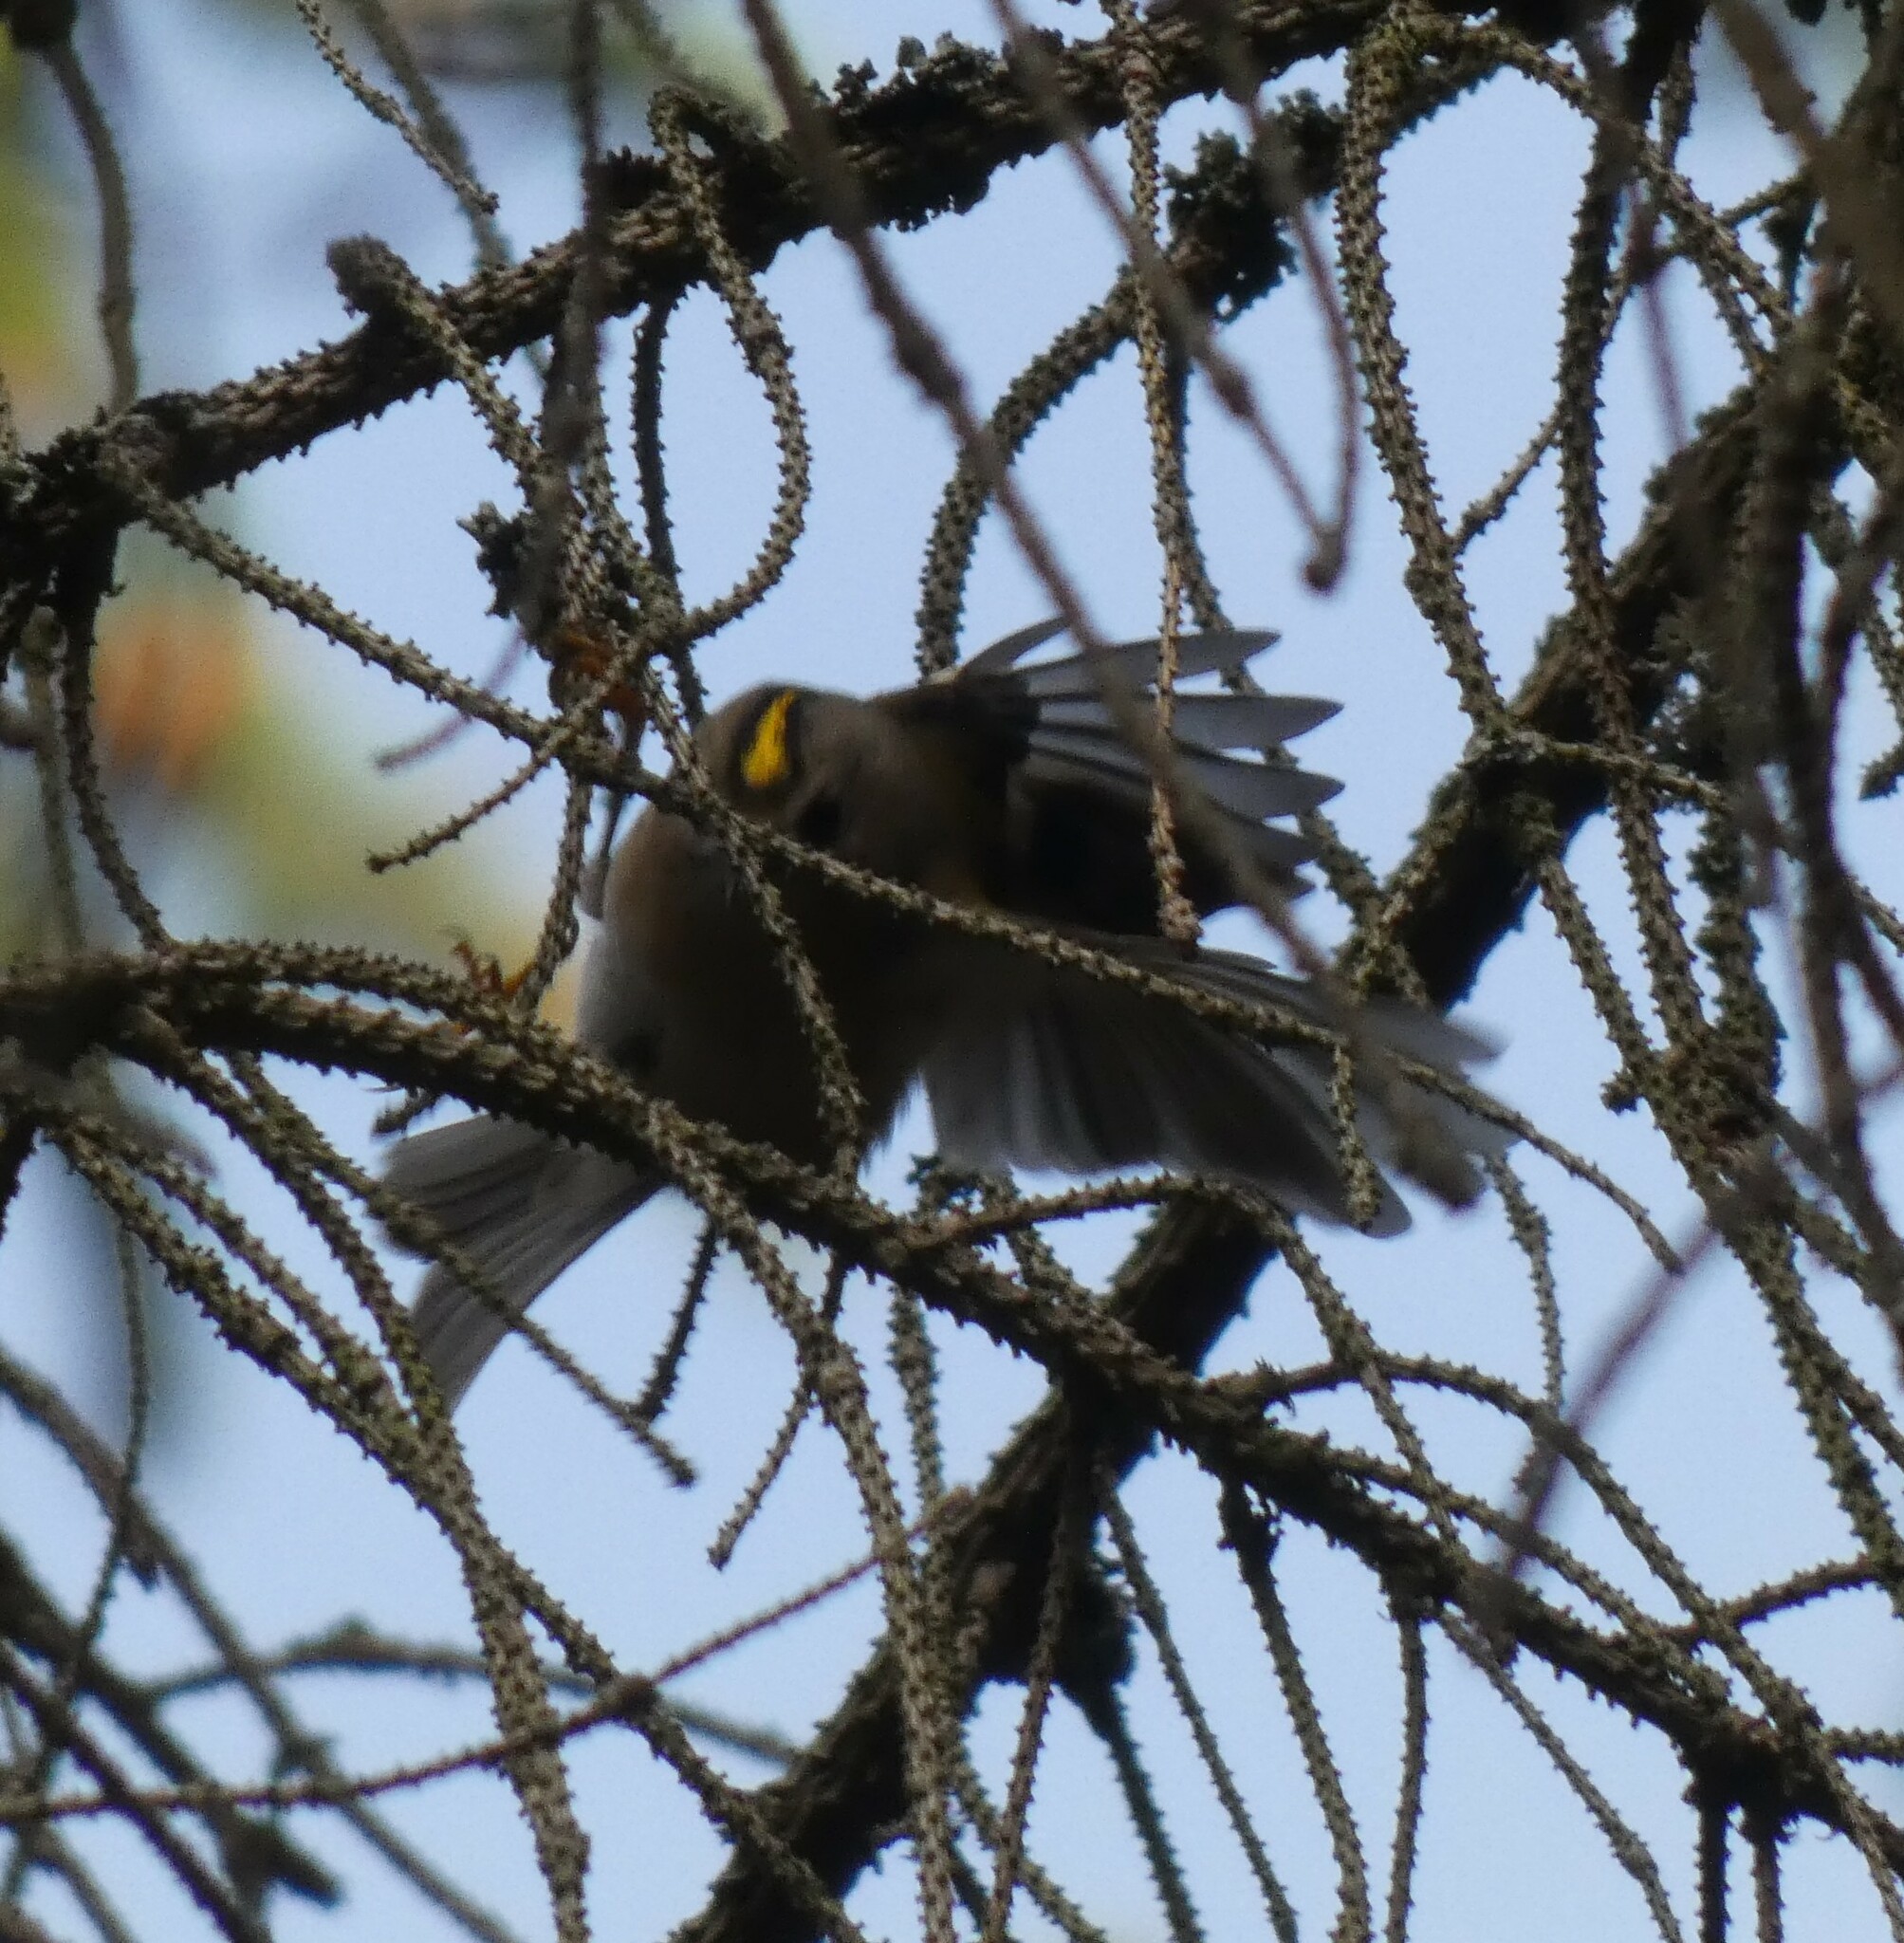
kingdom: Animalia
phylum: Chordata
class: Aves
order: Passeriformes
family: Regulidae
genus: Regulus
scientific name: Regulus regulus
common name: Goldcrest
